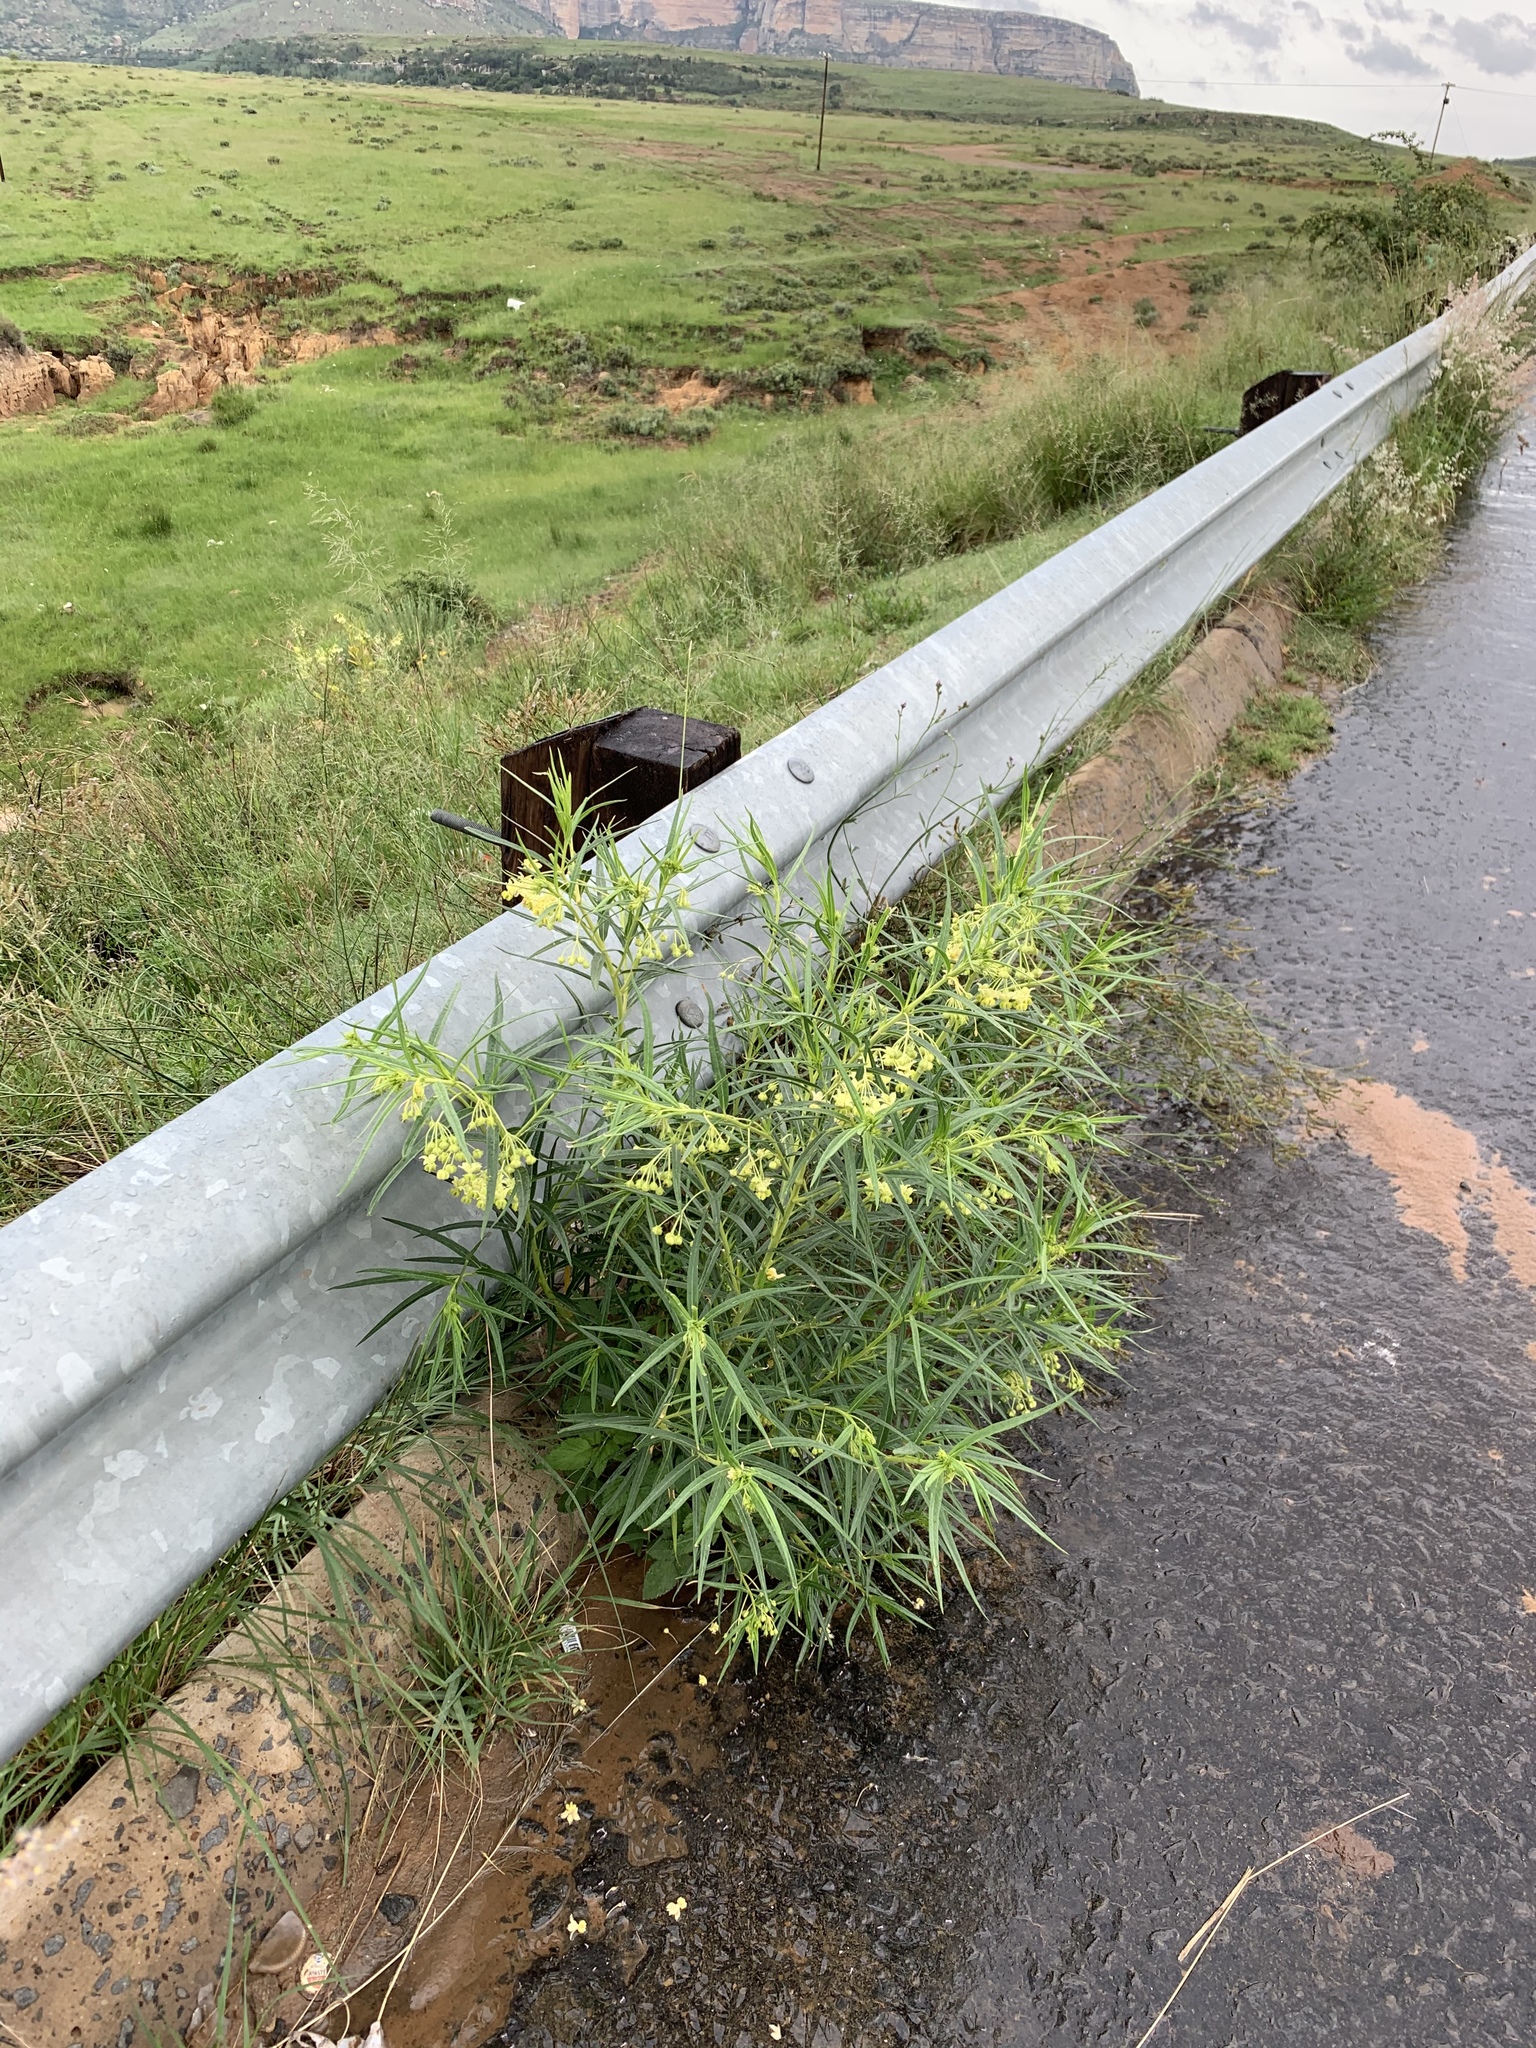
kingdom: Plantae
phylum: Tracheophyta
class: Magnoliopsida
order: Gentianales
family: Apocynaceae
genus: Gomphocarpus
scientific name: Gomphocarpus fruticosus
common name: Milkweed
